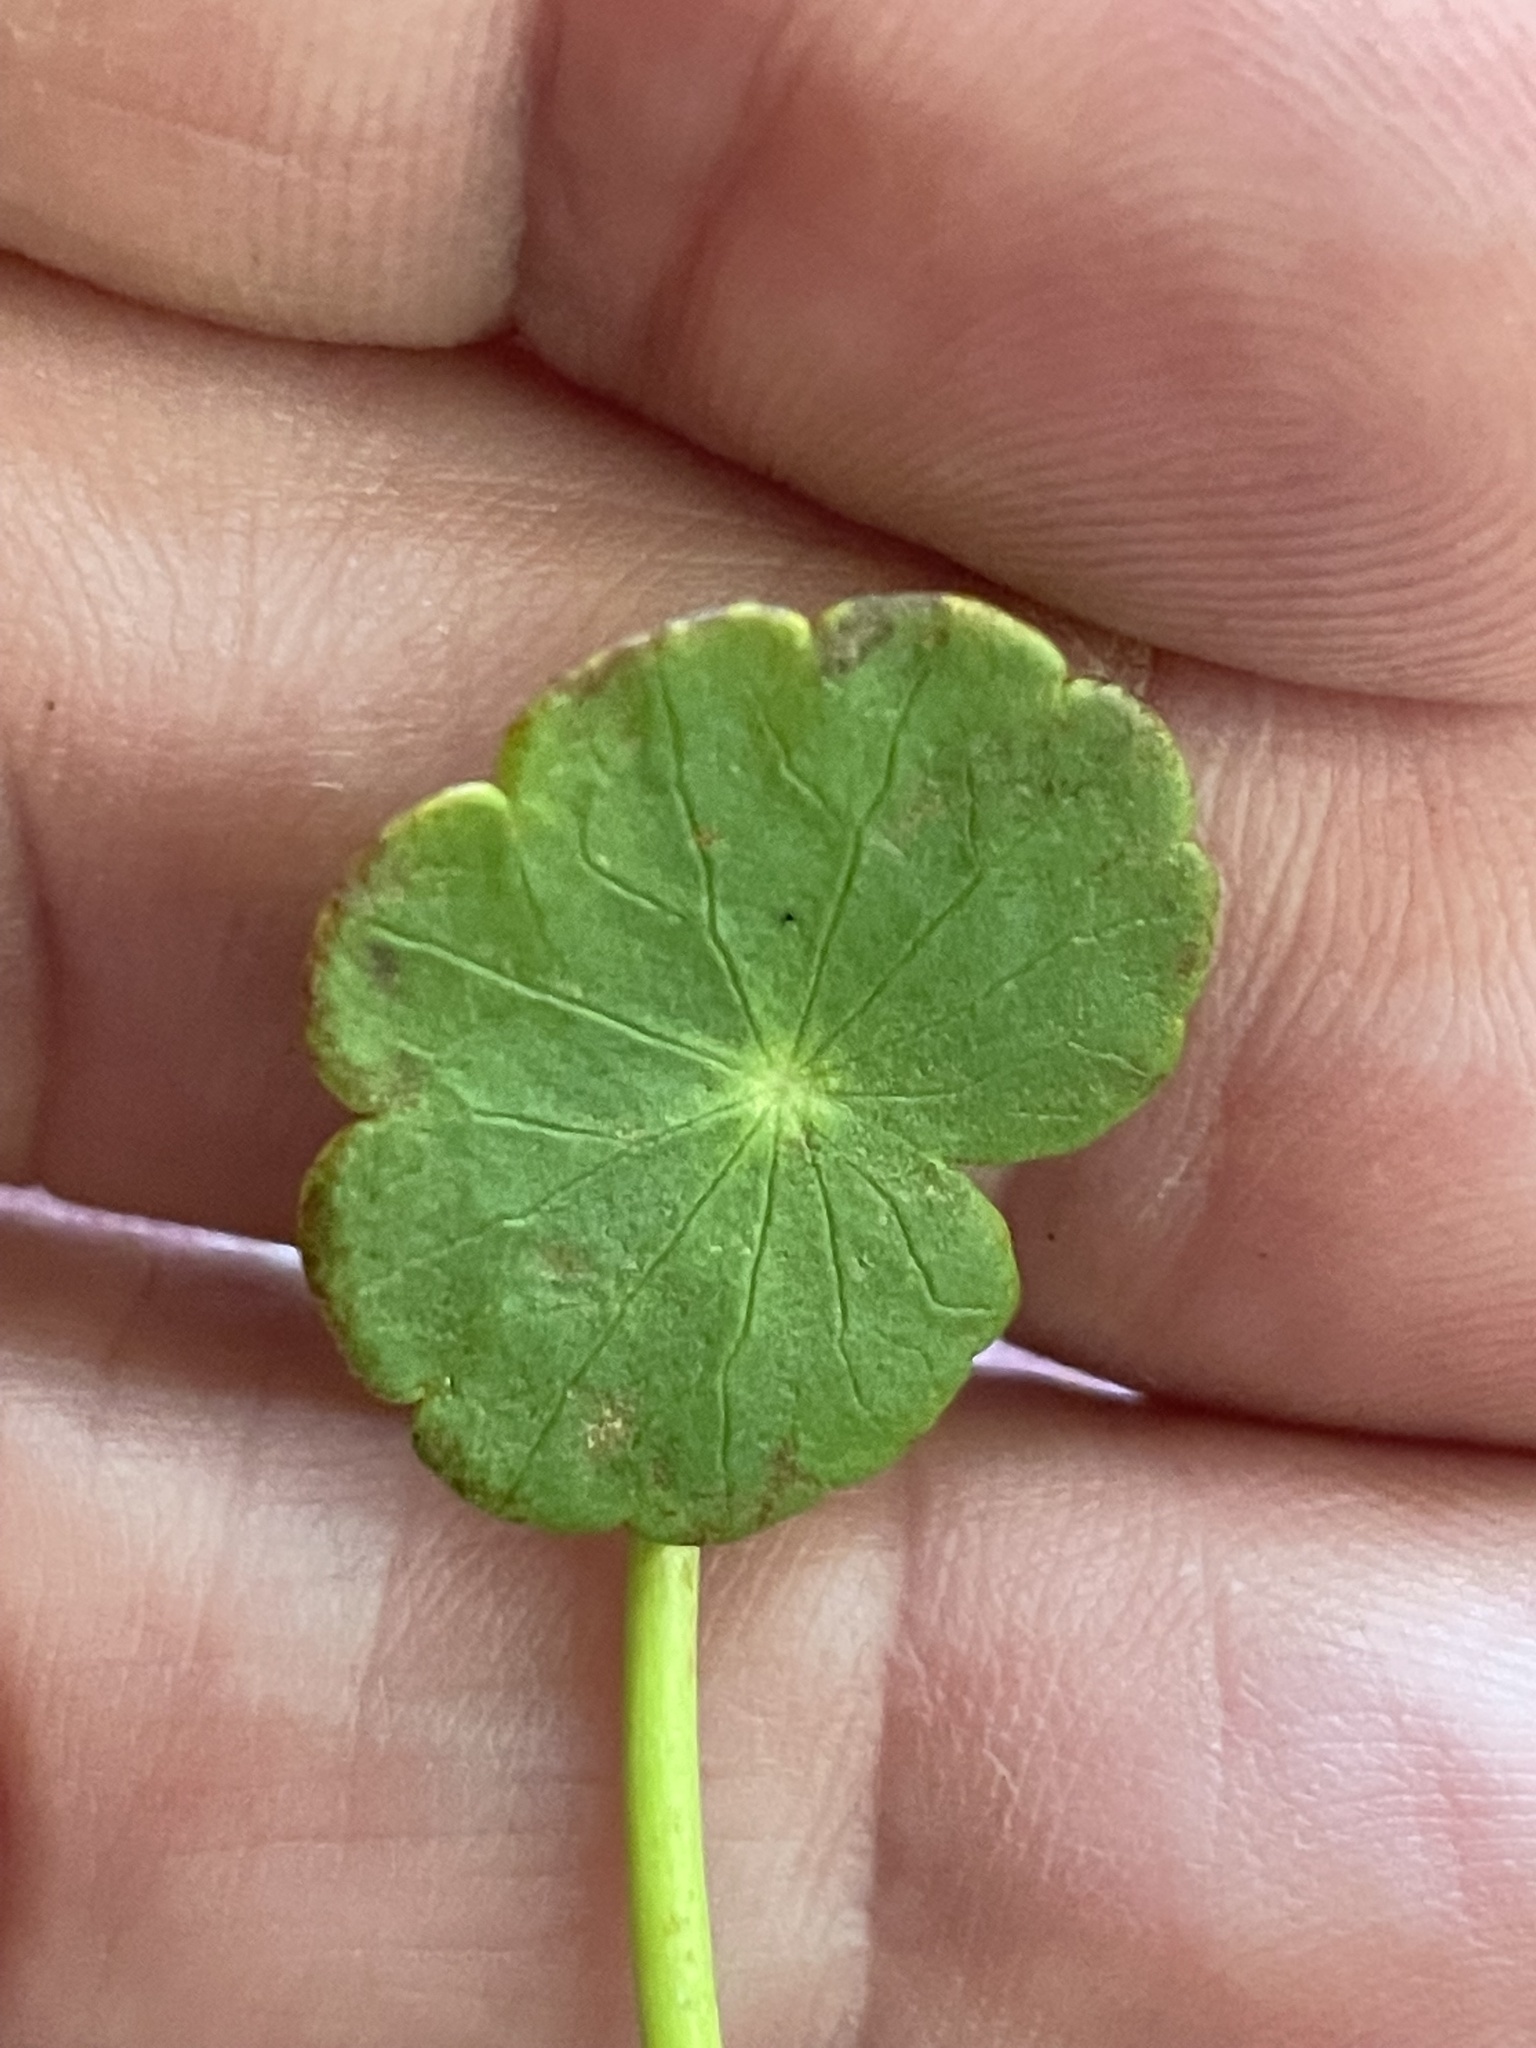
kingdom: Plantae
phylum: Tracheophyta
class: Magnoliopsida
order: Apiales
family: Araliaceae
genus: Hydrocotyle
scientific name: Hydrocotyle umbellata
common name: Water pennywort
